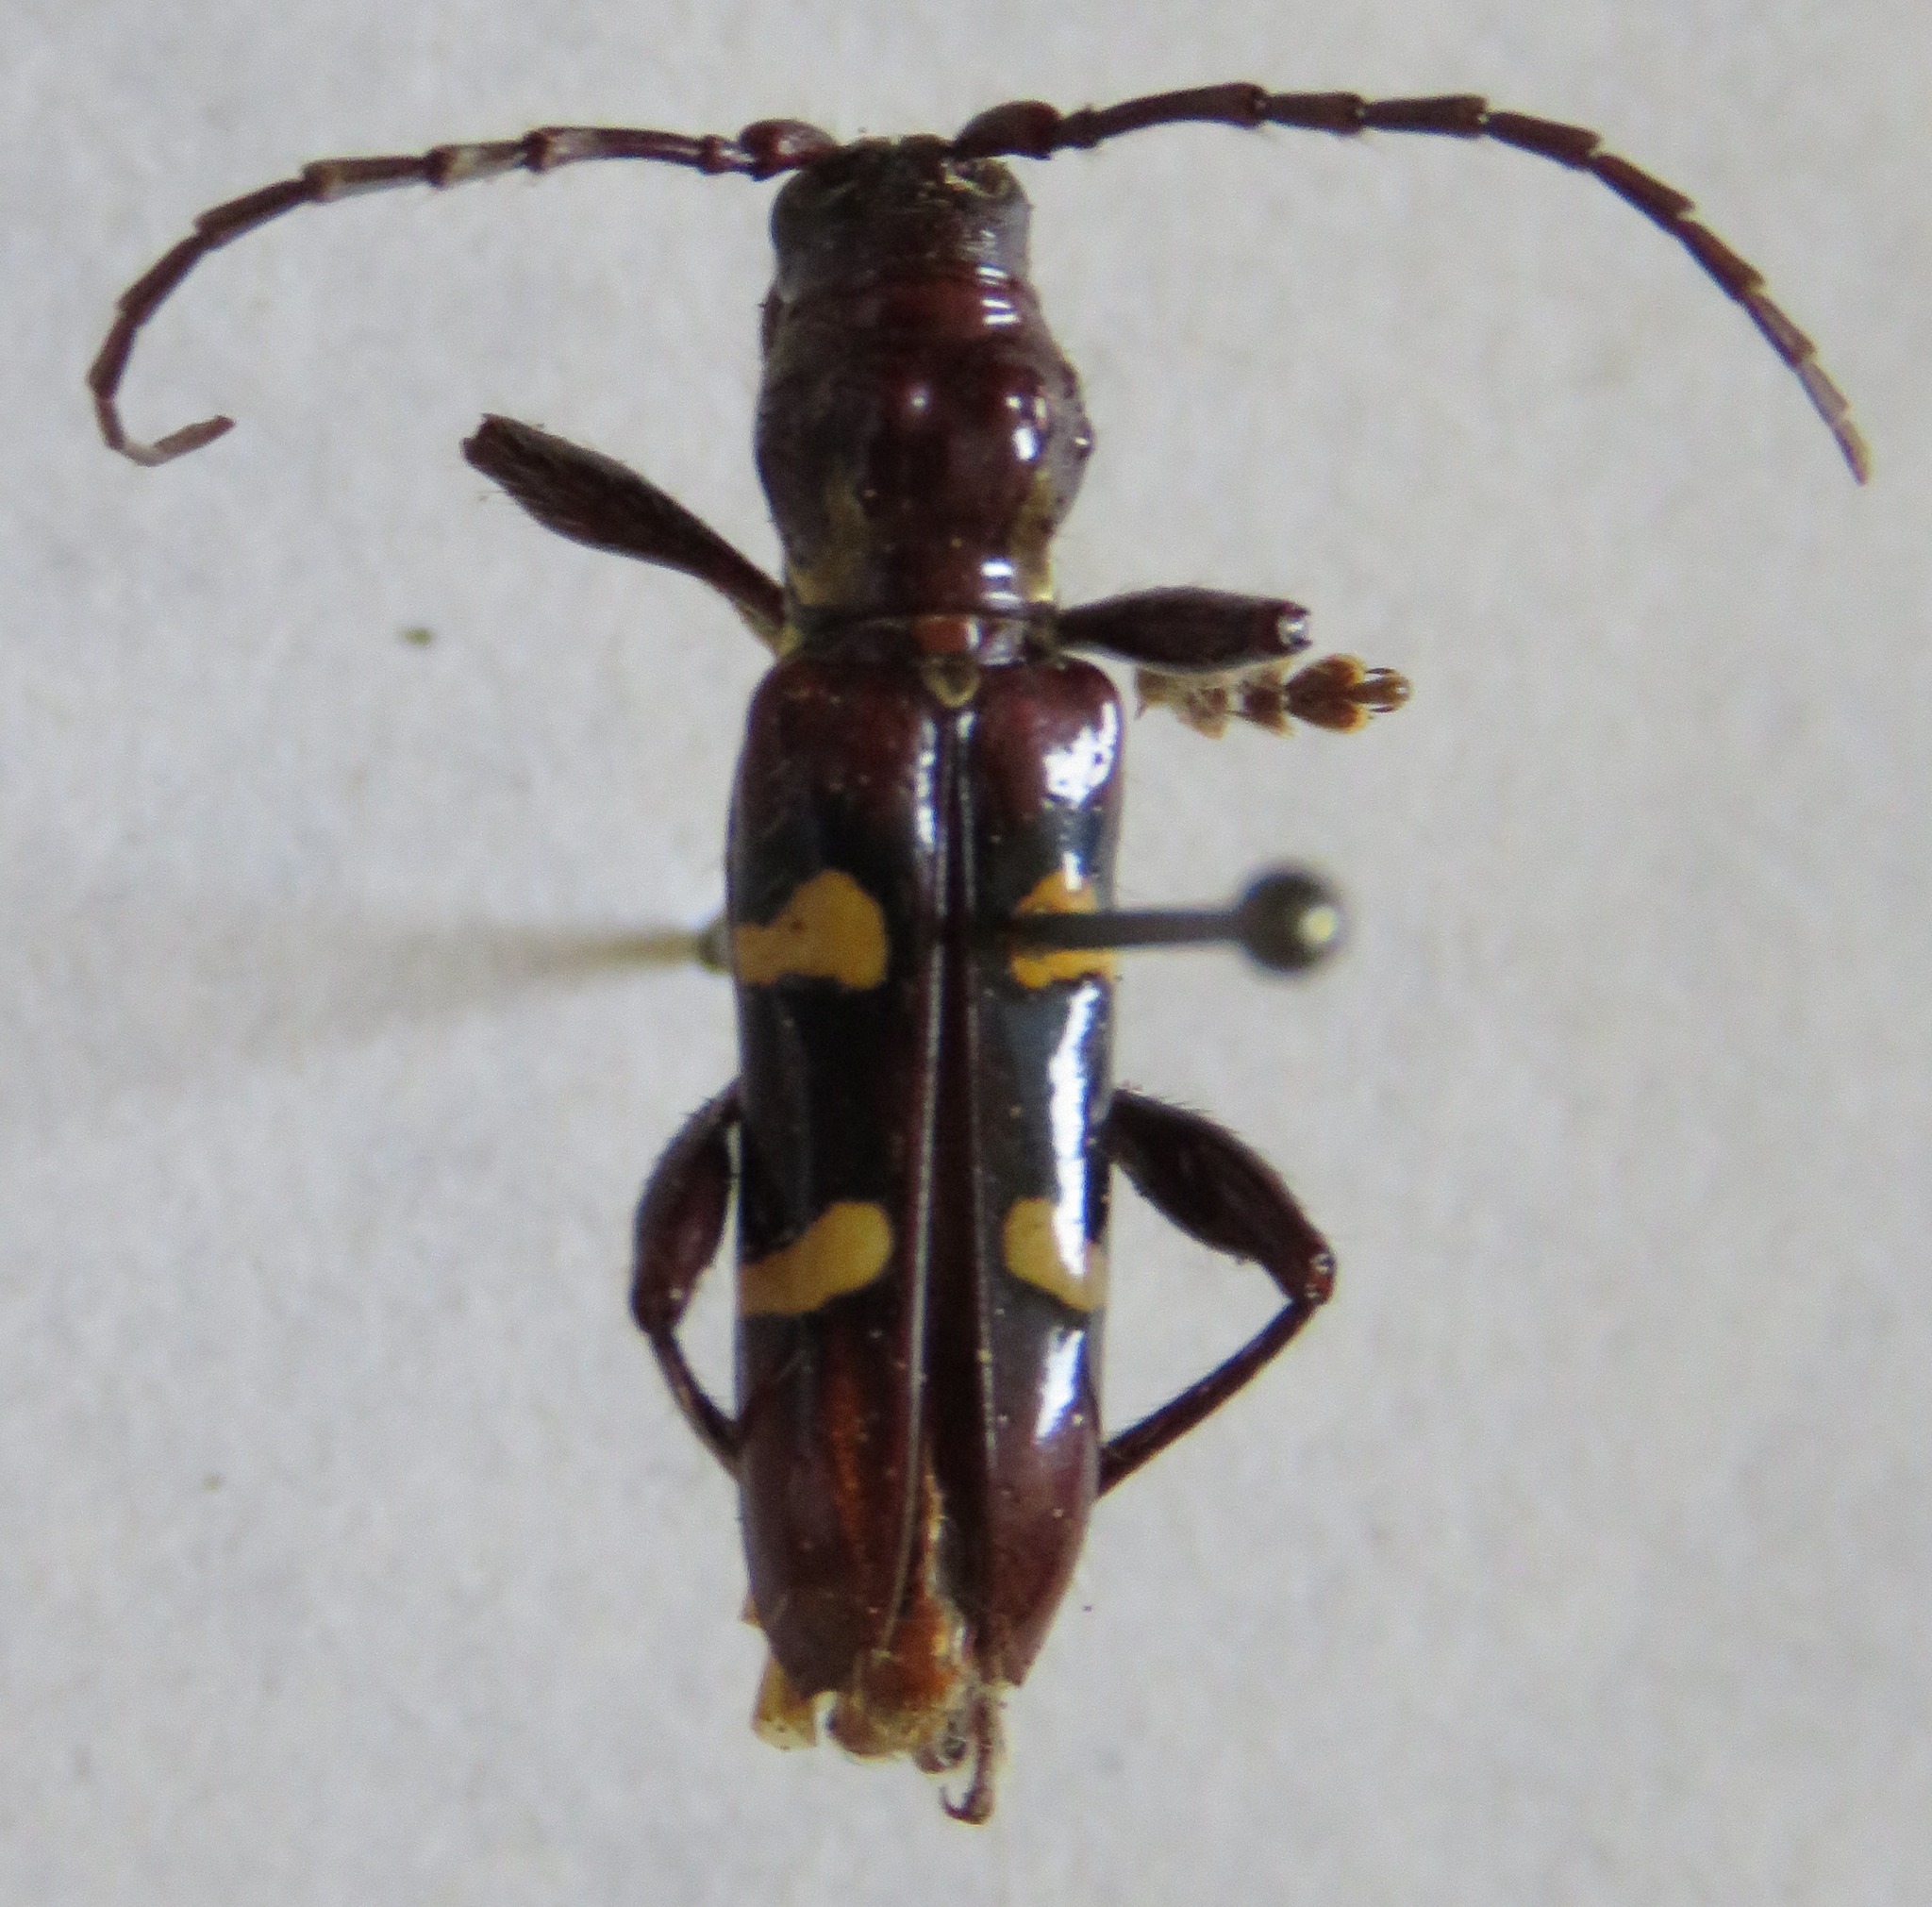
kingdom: Animalia
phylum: Arthropoda
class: Insecta
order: Coleoptera
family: Cerambycidae
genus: Stenygra
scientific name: Stenygra histrio
